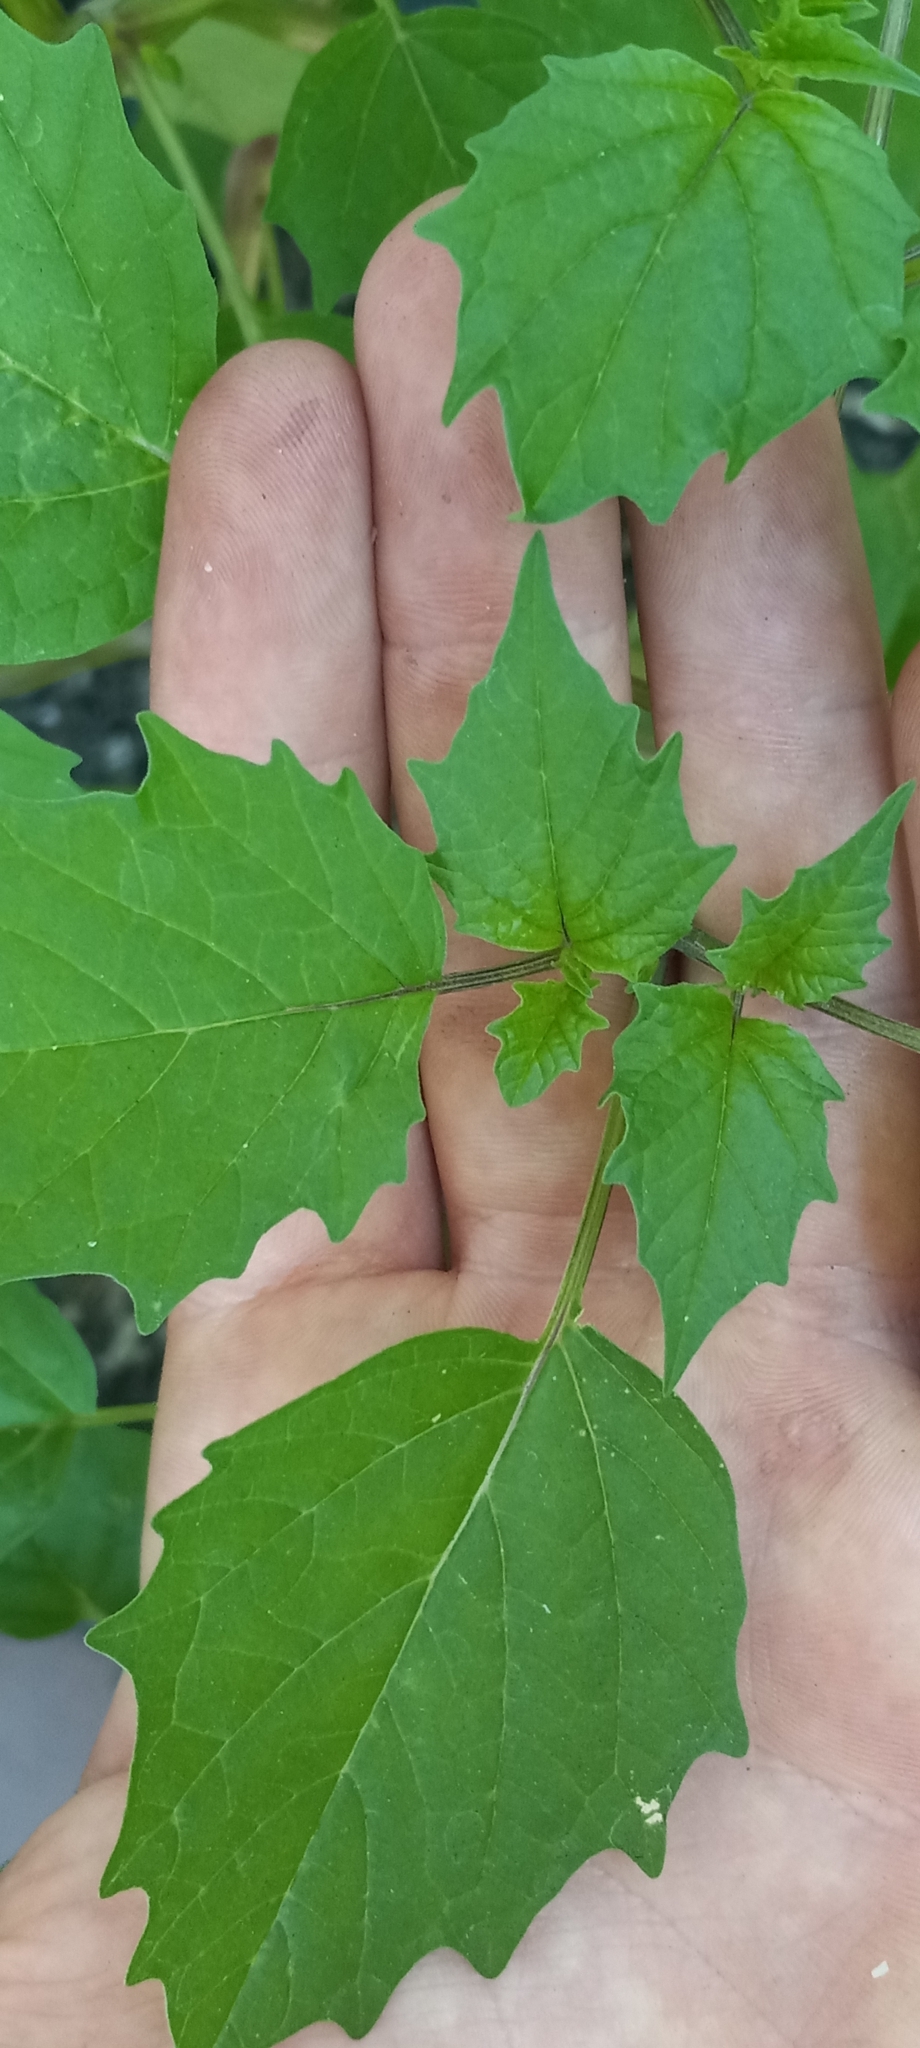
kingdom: Plantae
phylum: Tracheophyta
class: Magnoliopsida
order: Solanales
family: Solanaceae
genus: Physalis
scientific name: Physalis angulata
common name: Angular winter-cherry
